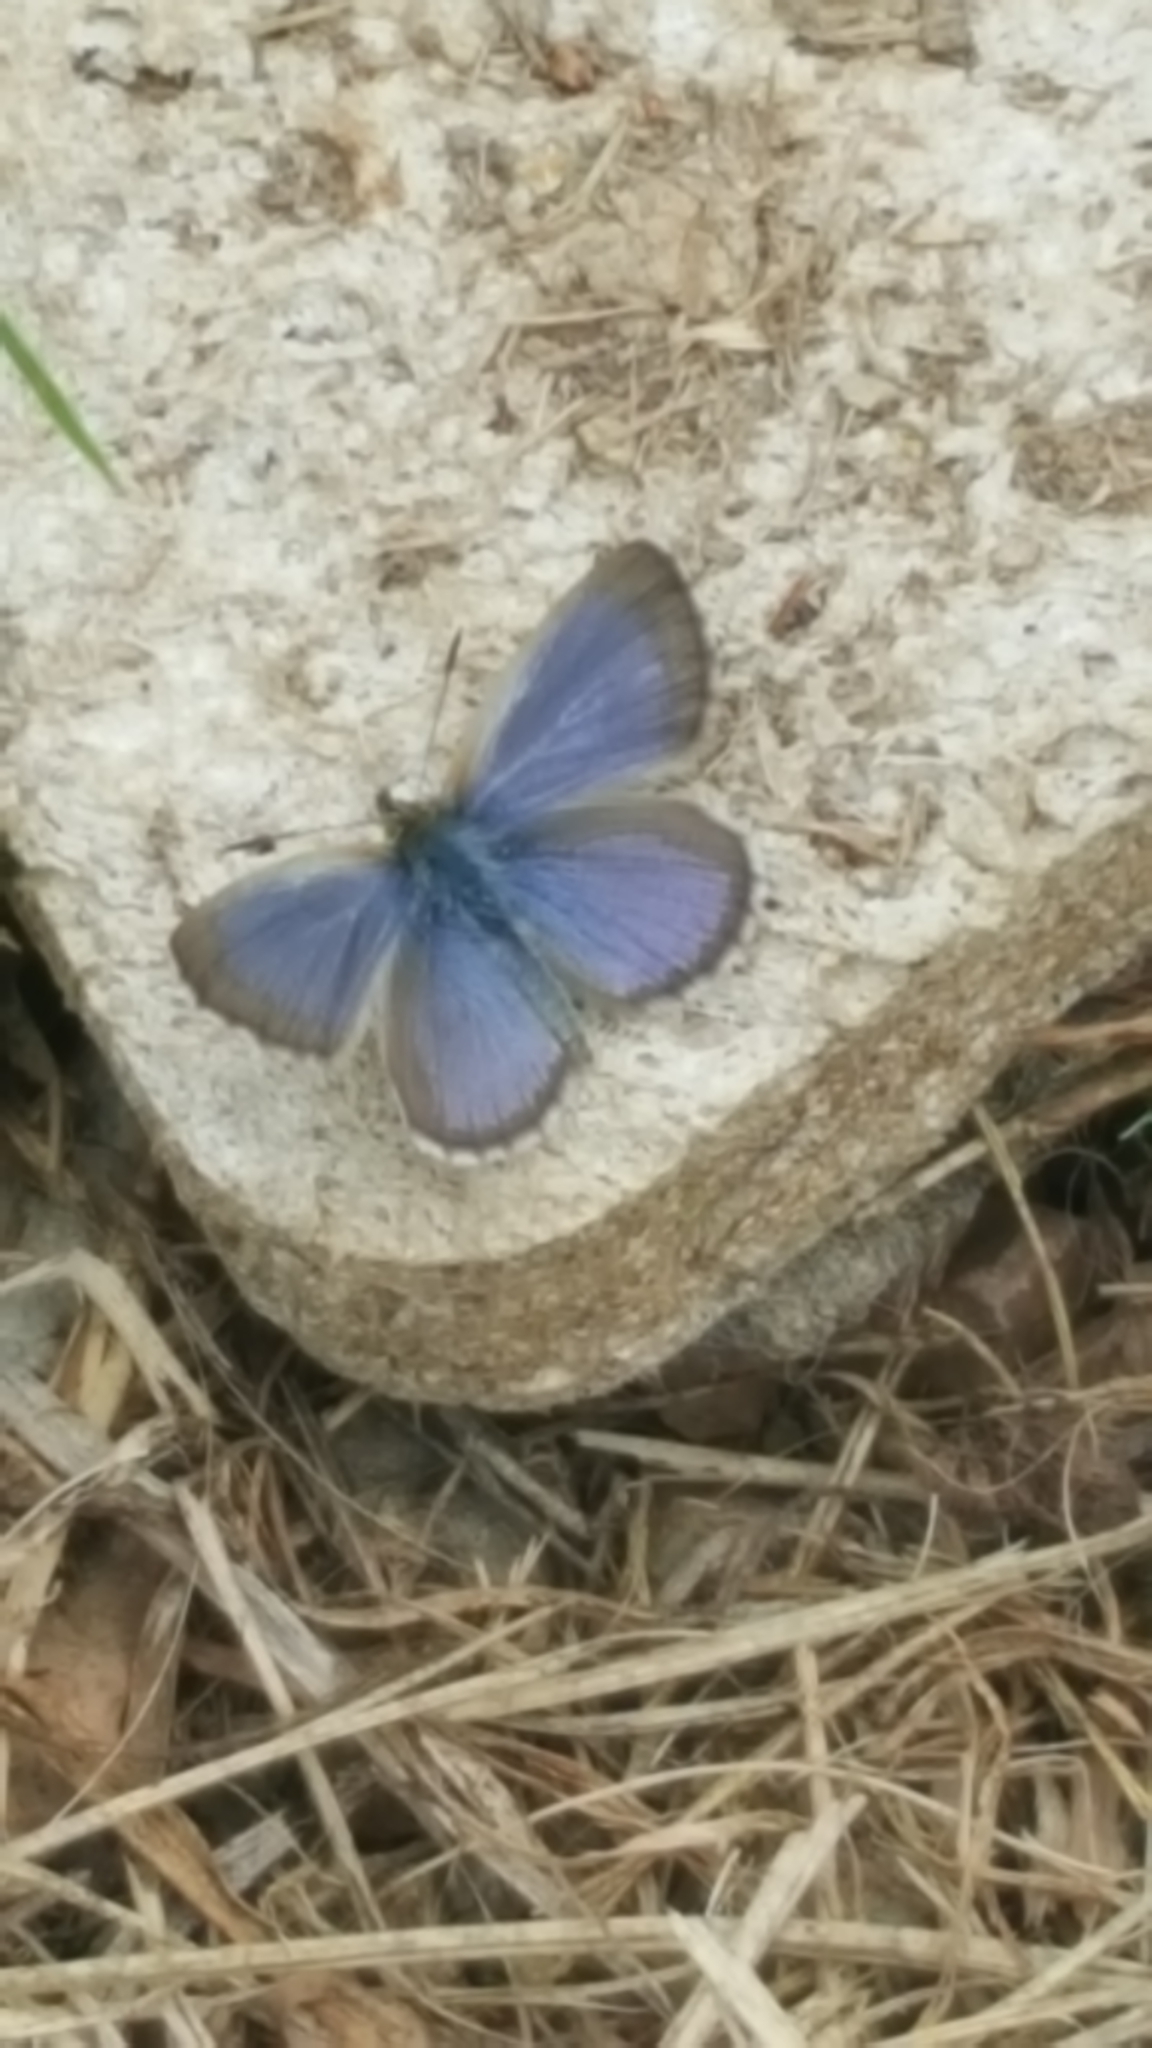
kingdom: Animalia
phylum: Arthropoda
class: Insecta
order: Lepidoptera
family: Lycaenidae
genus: Zizina
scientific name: Zizina labradus
